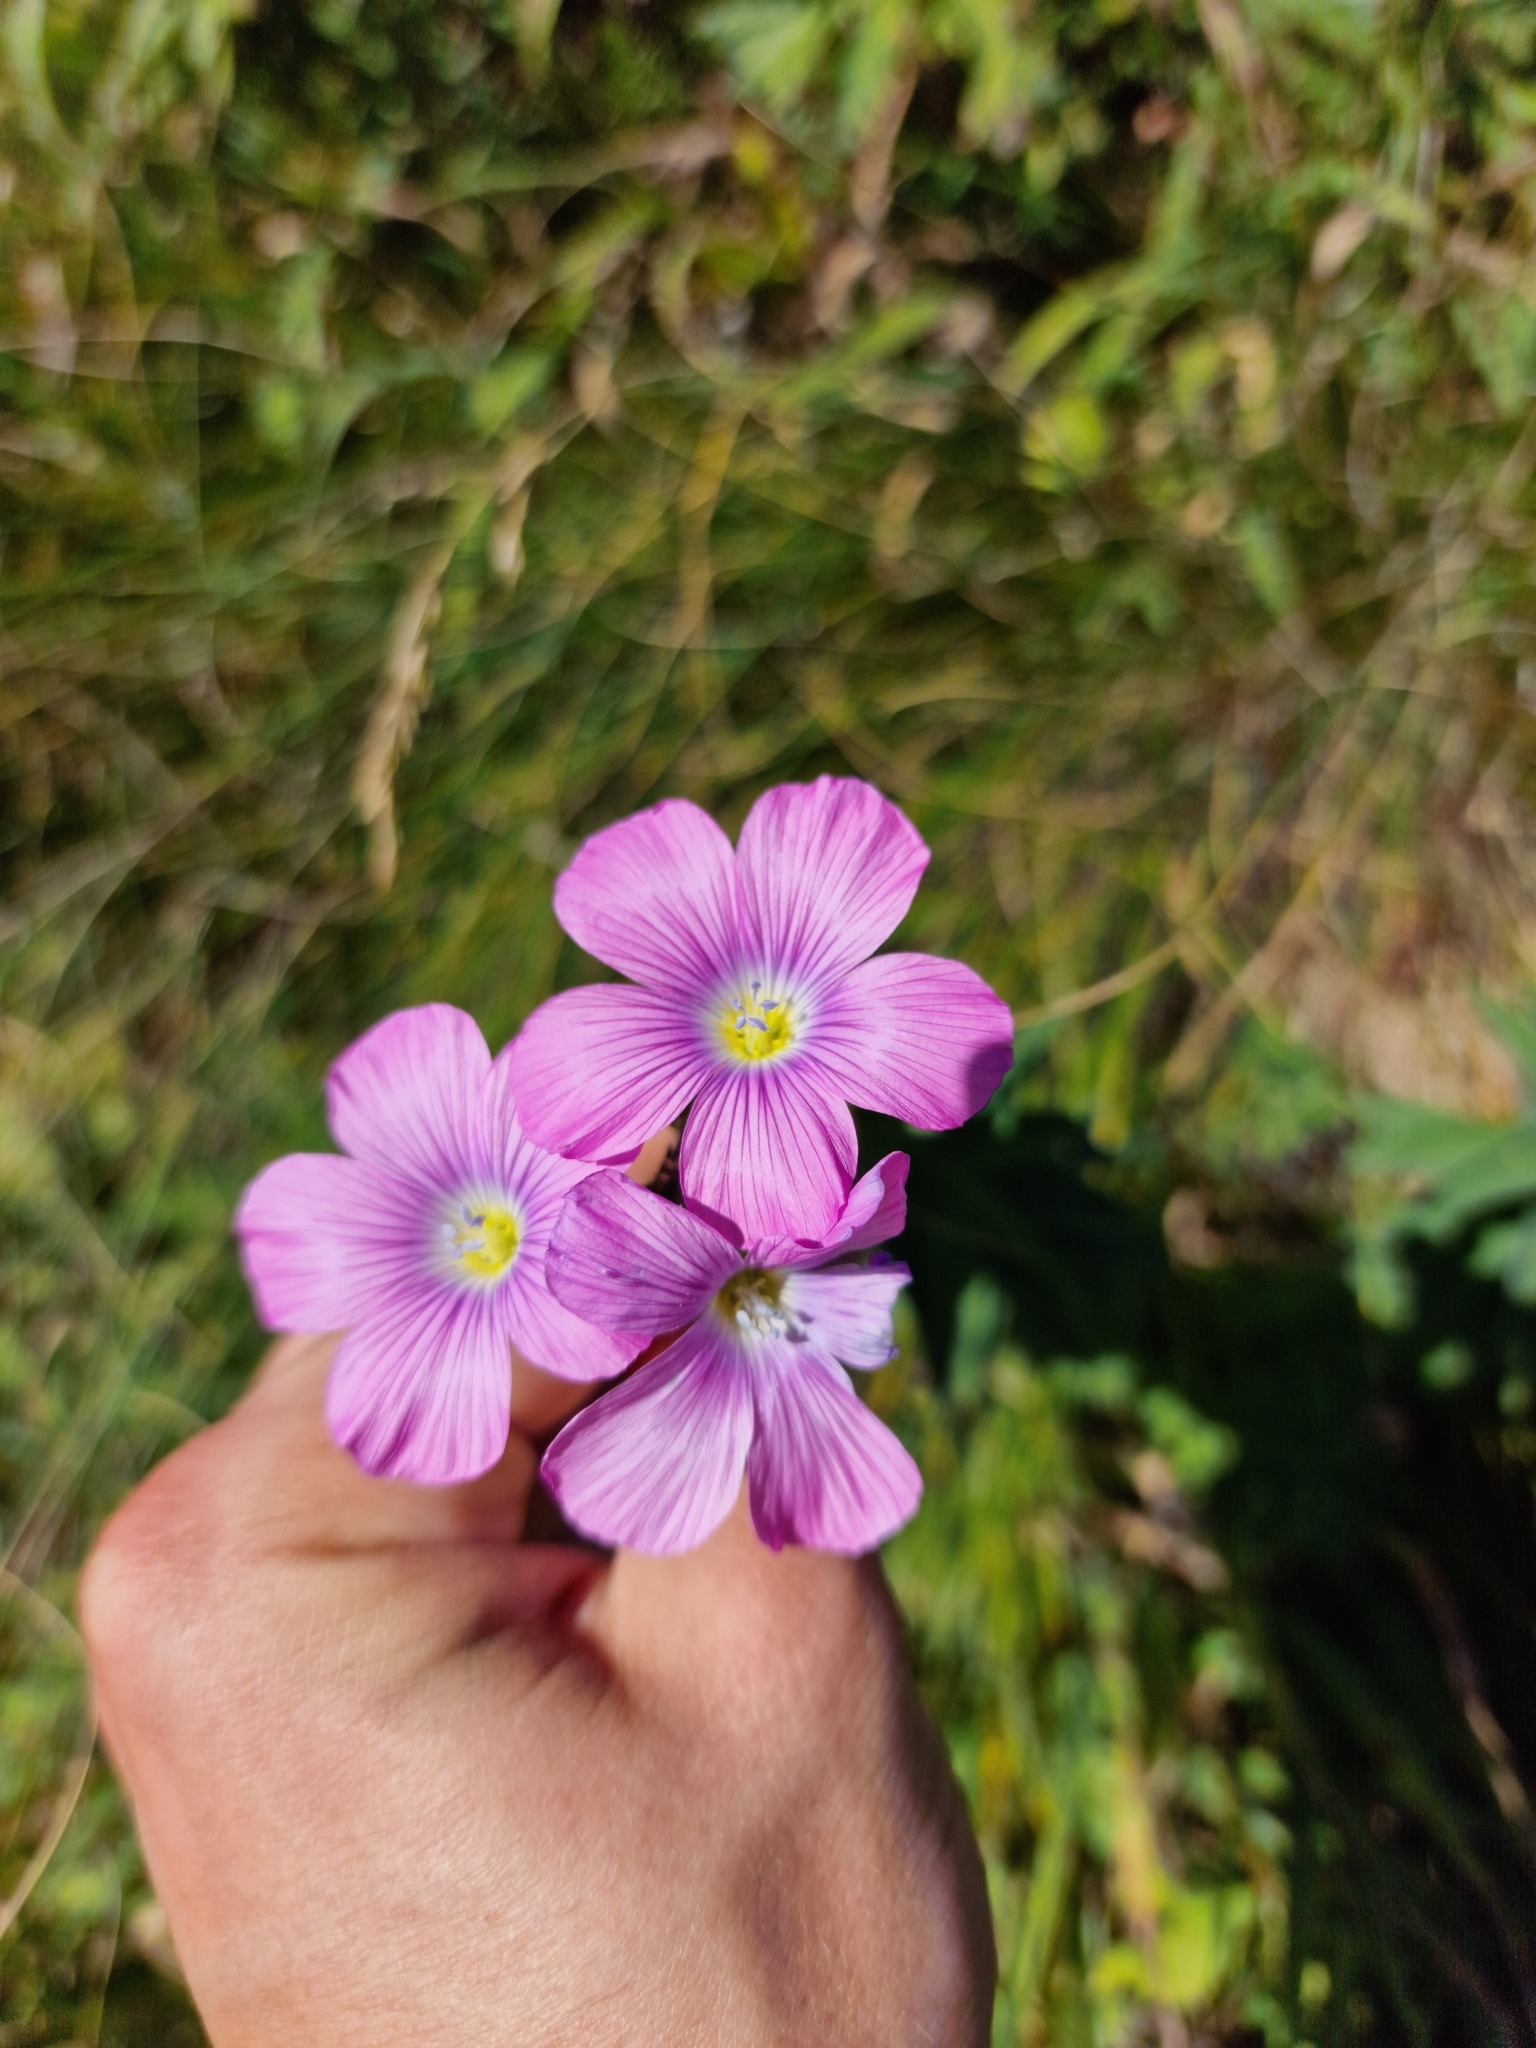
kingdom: Plantae
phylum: Tracheophyta
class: Magnoliopsida
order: Malpighiales
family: Linaceae
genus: Linum
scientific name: Linum hypericifolium
